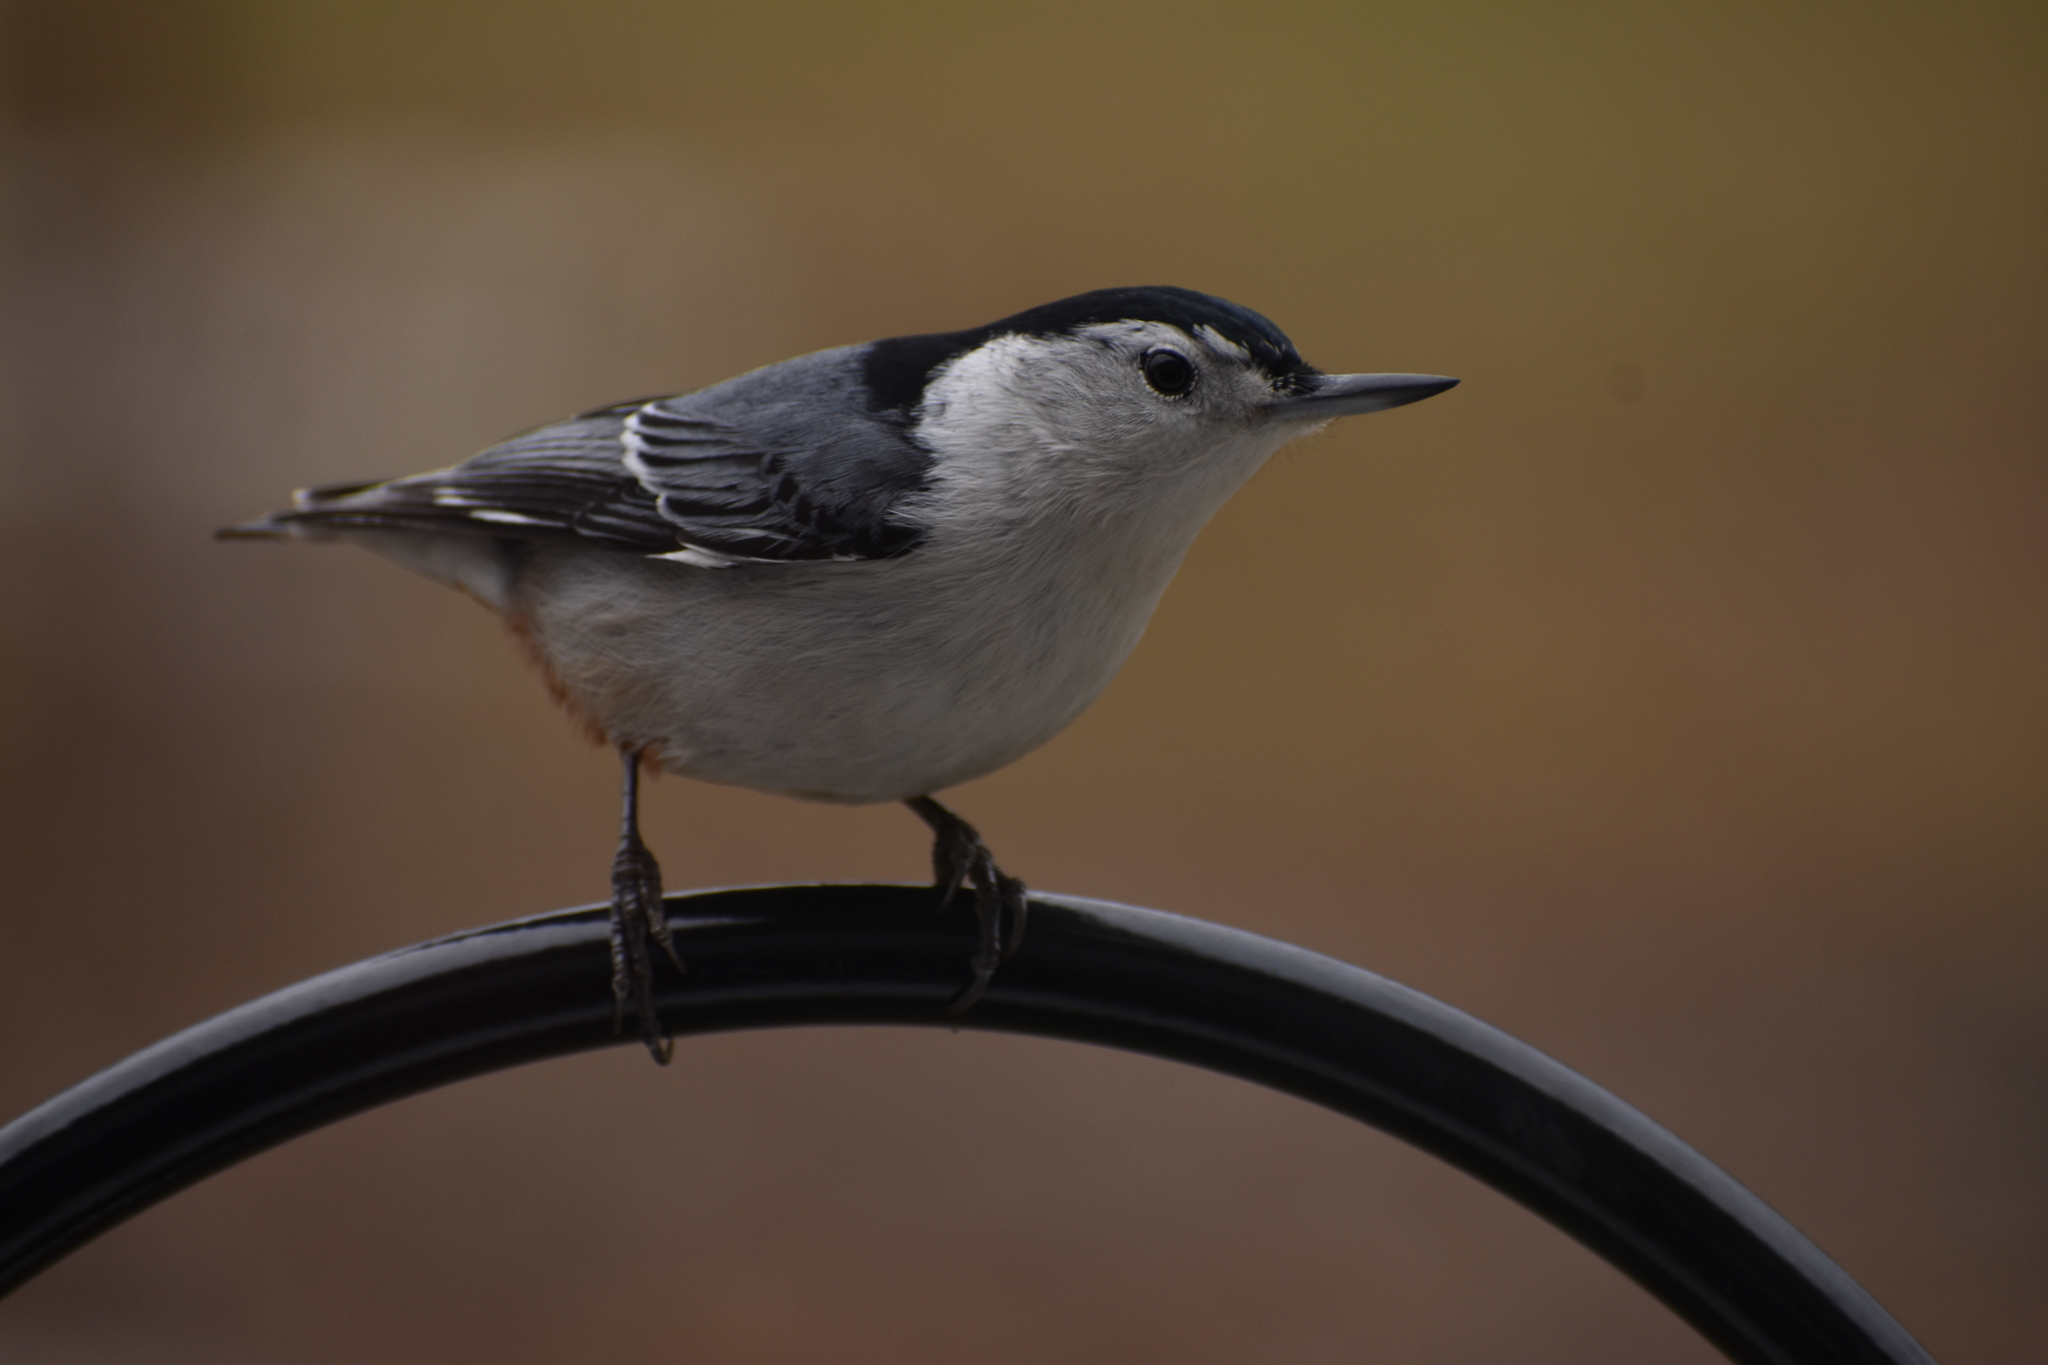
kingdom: Animalia
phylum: Chordata
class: Aves
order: Passeriformes
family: Sittidae
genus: Sitta
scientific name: Sitta carolinensis
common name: White-breasted nuthatch
